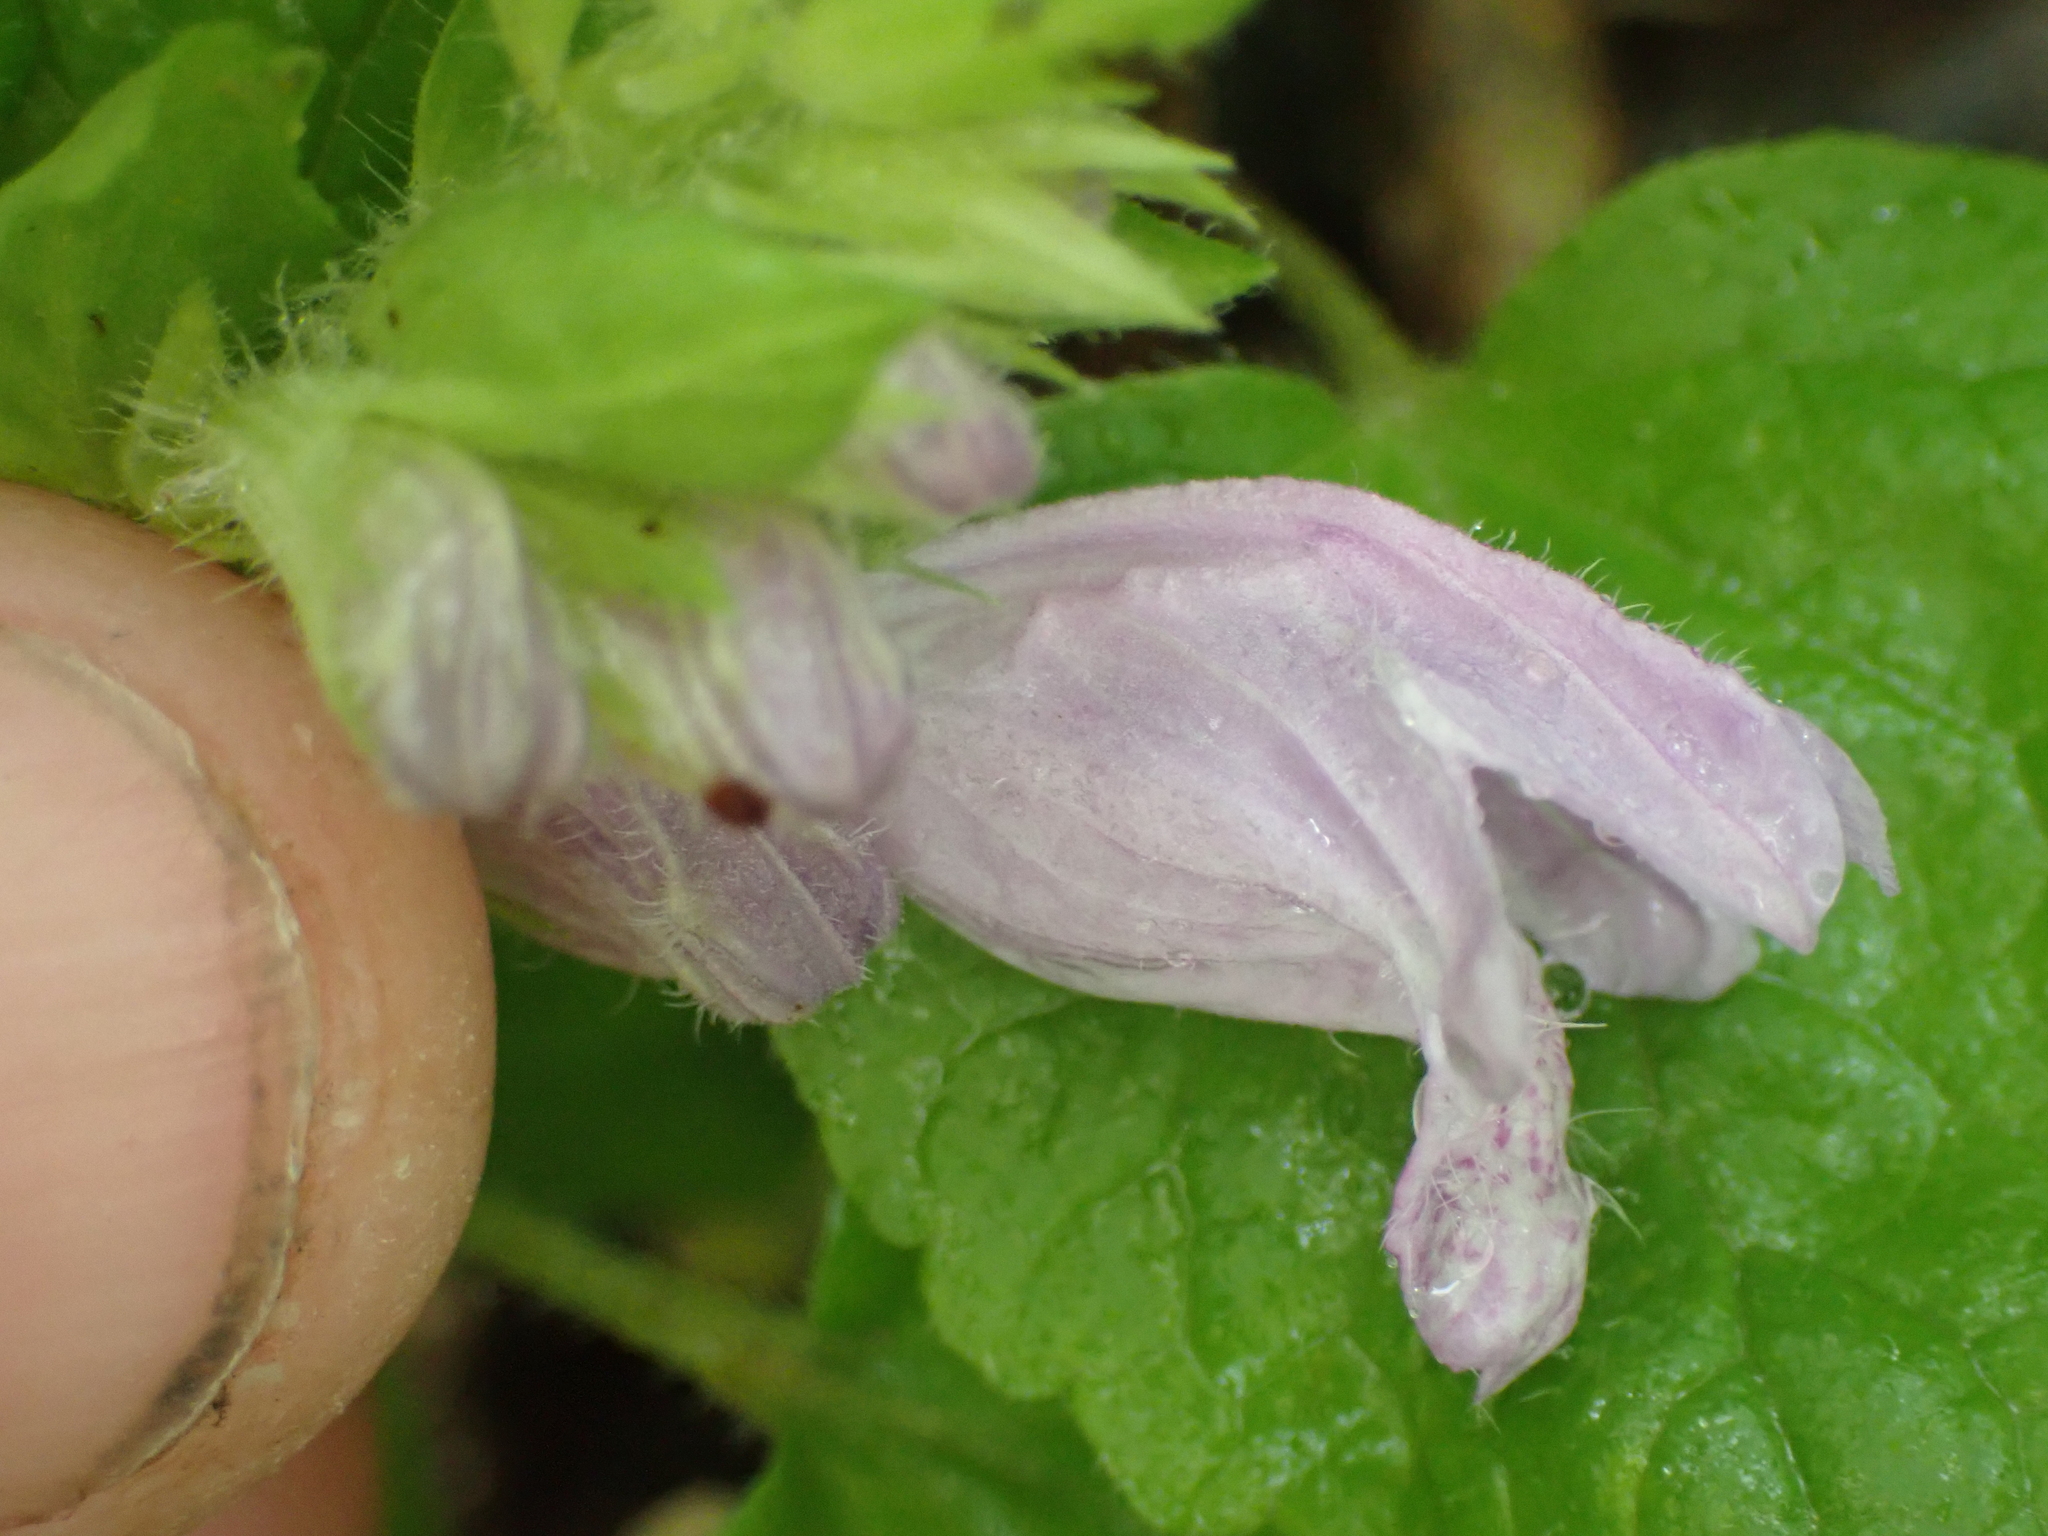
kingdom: Plantae
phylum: Tracheophyta
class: Magnoliopsida
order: Lamiales
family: Lamiaceae
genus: Meehania
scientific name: Meehania cordata
